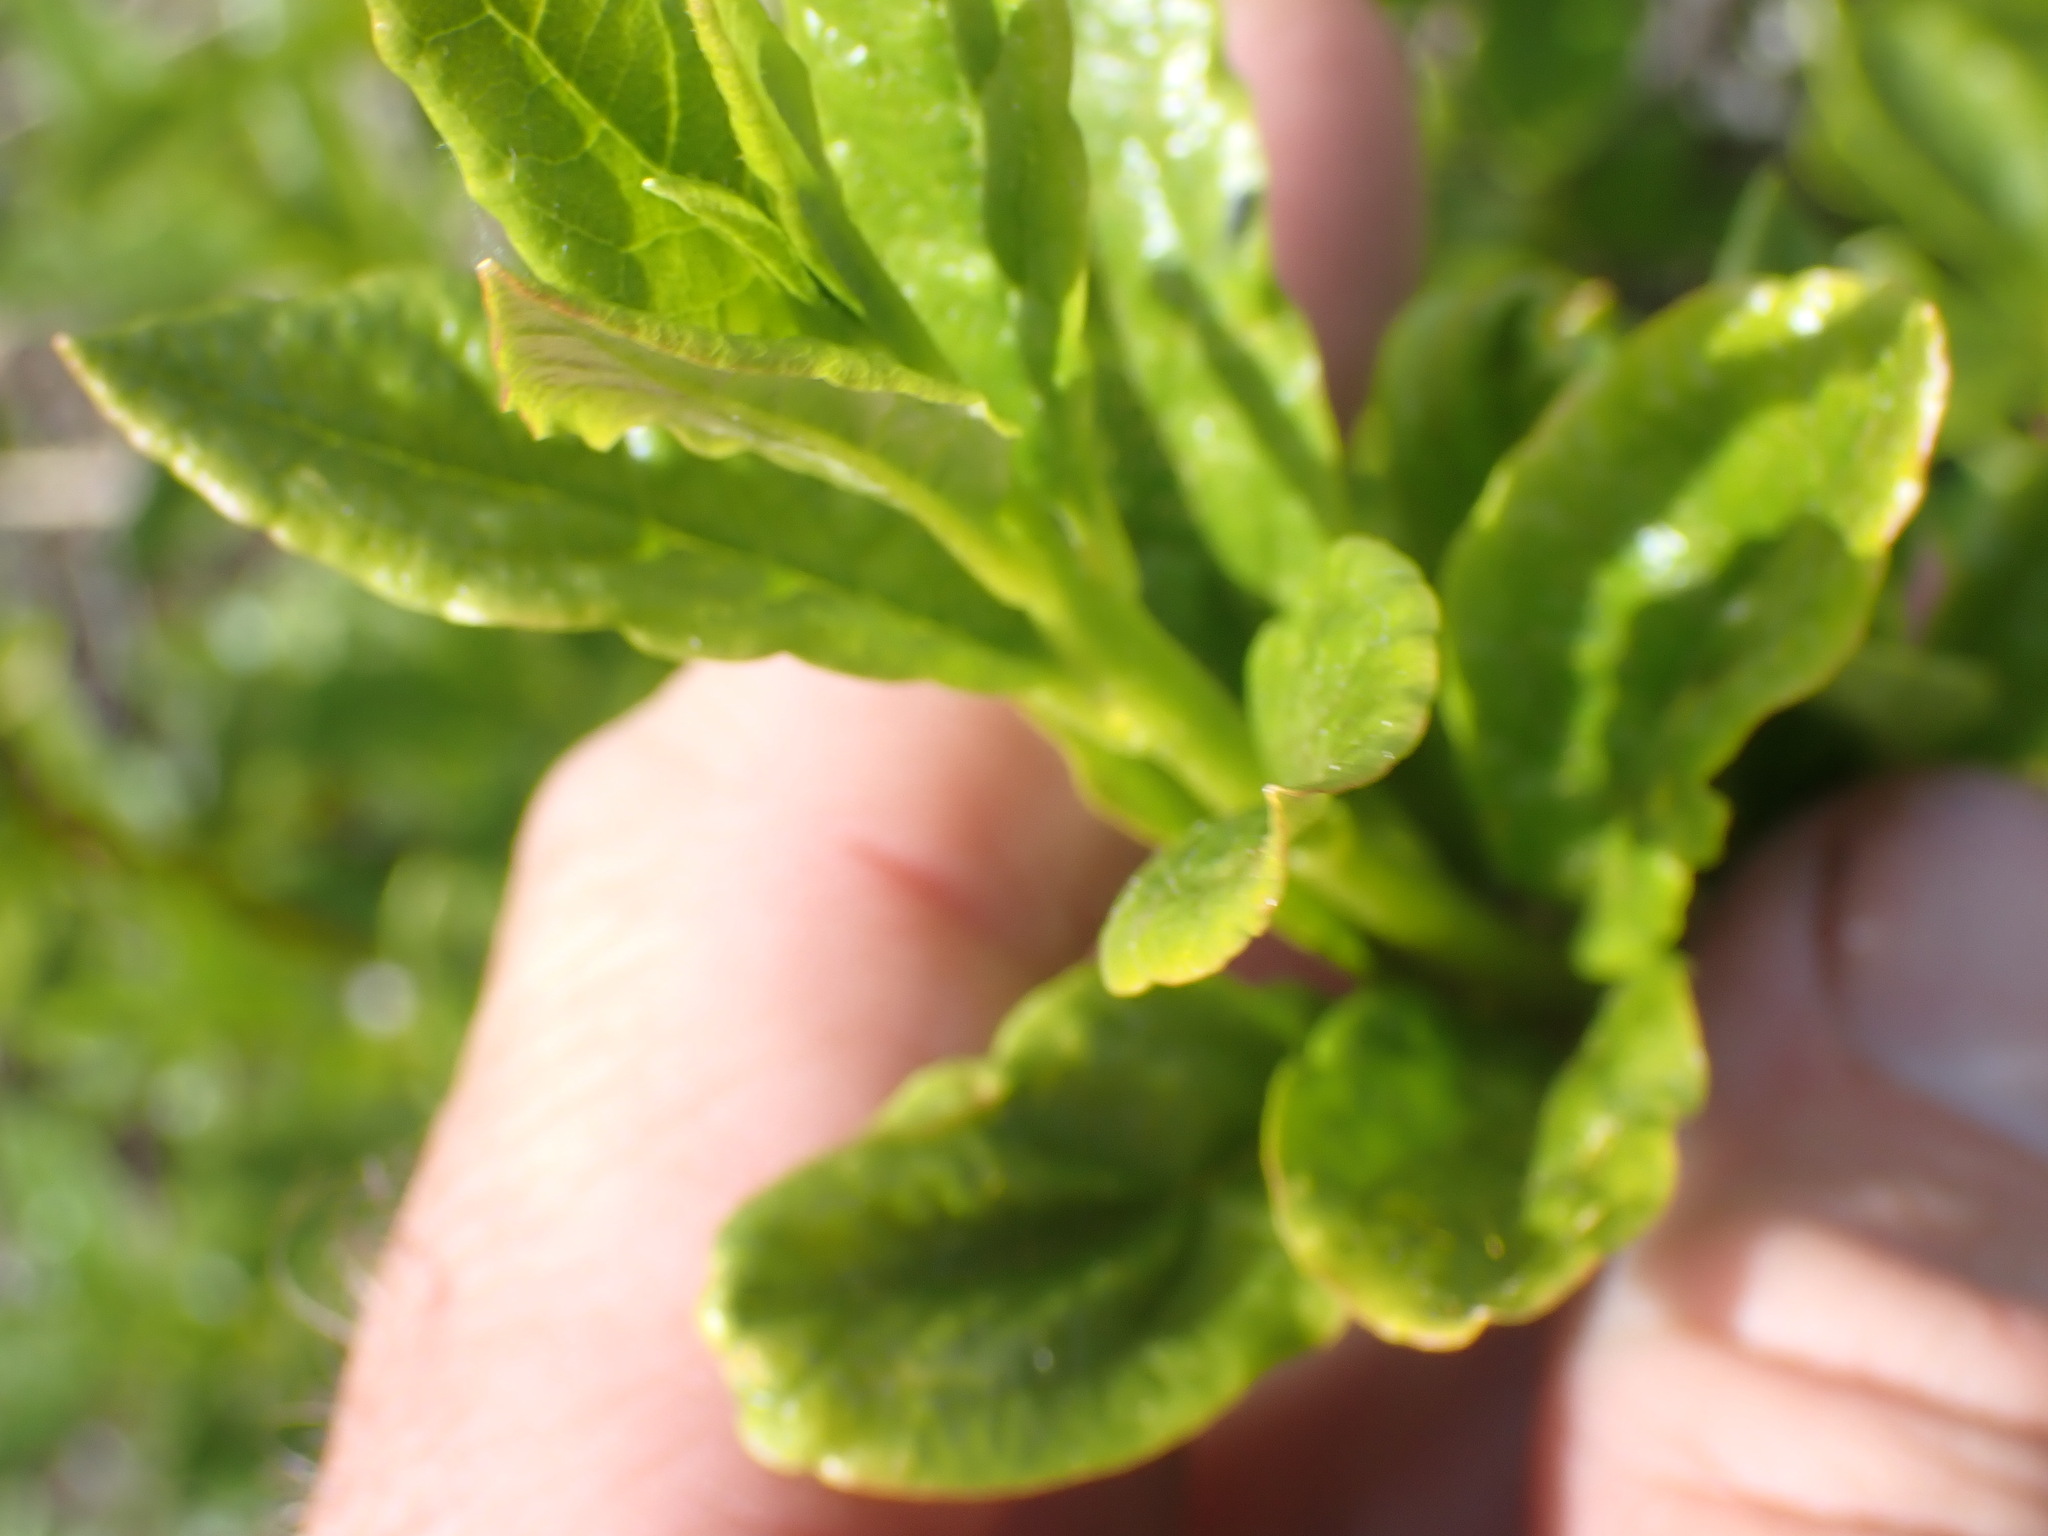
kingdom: Plantae
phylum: Tracheophyta
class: Magnoliopsida
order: Ericales
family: Ericaceae
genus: Rhododendron
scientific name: Rhododendron albiflorum
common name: White rhododendron
